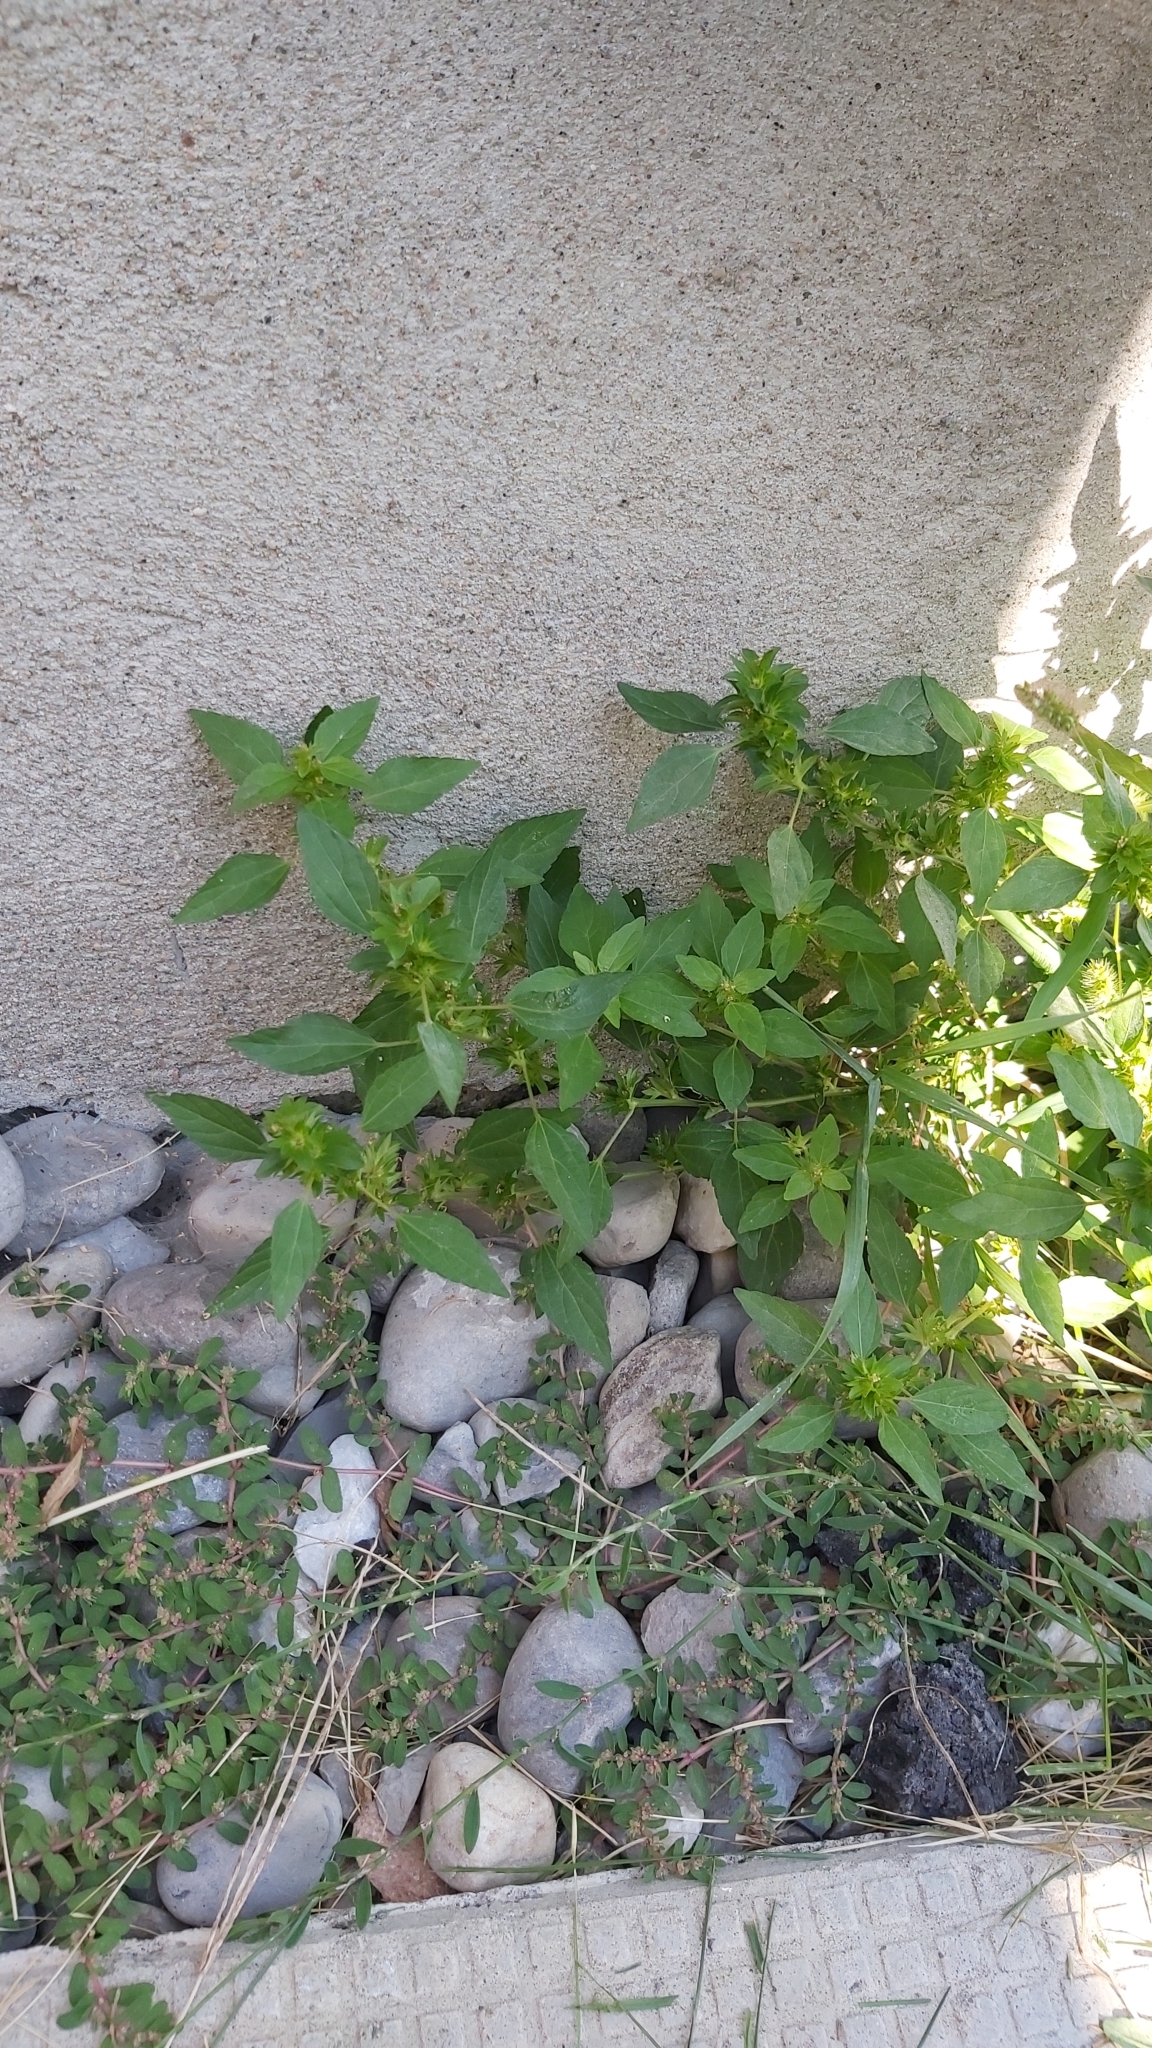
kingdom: Plantae
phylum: Tracheophyta
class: Magnoliopsida
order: Malpighiales
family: Euphorbiaceae
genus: Acalypha
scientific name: Acalypha rhomboidea
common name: Rhombic copperleaf
